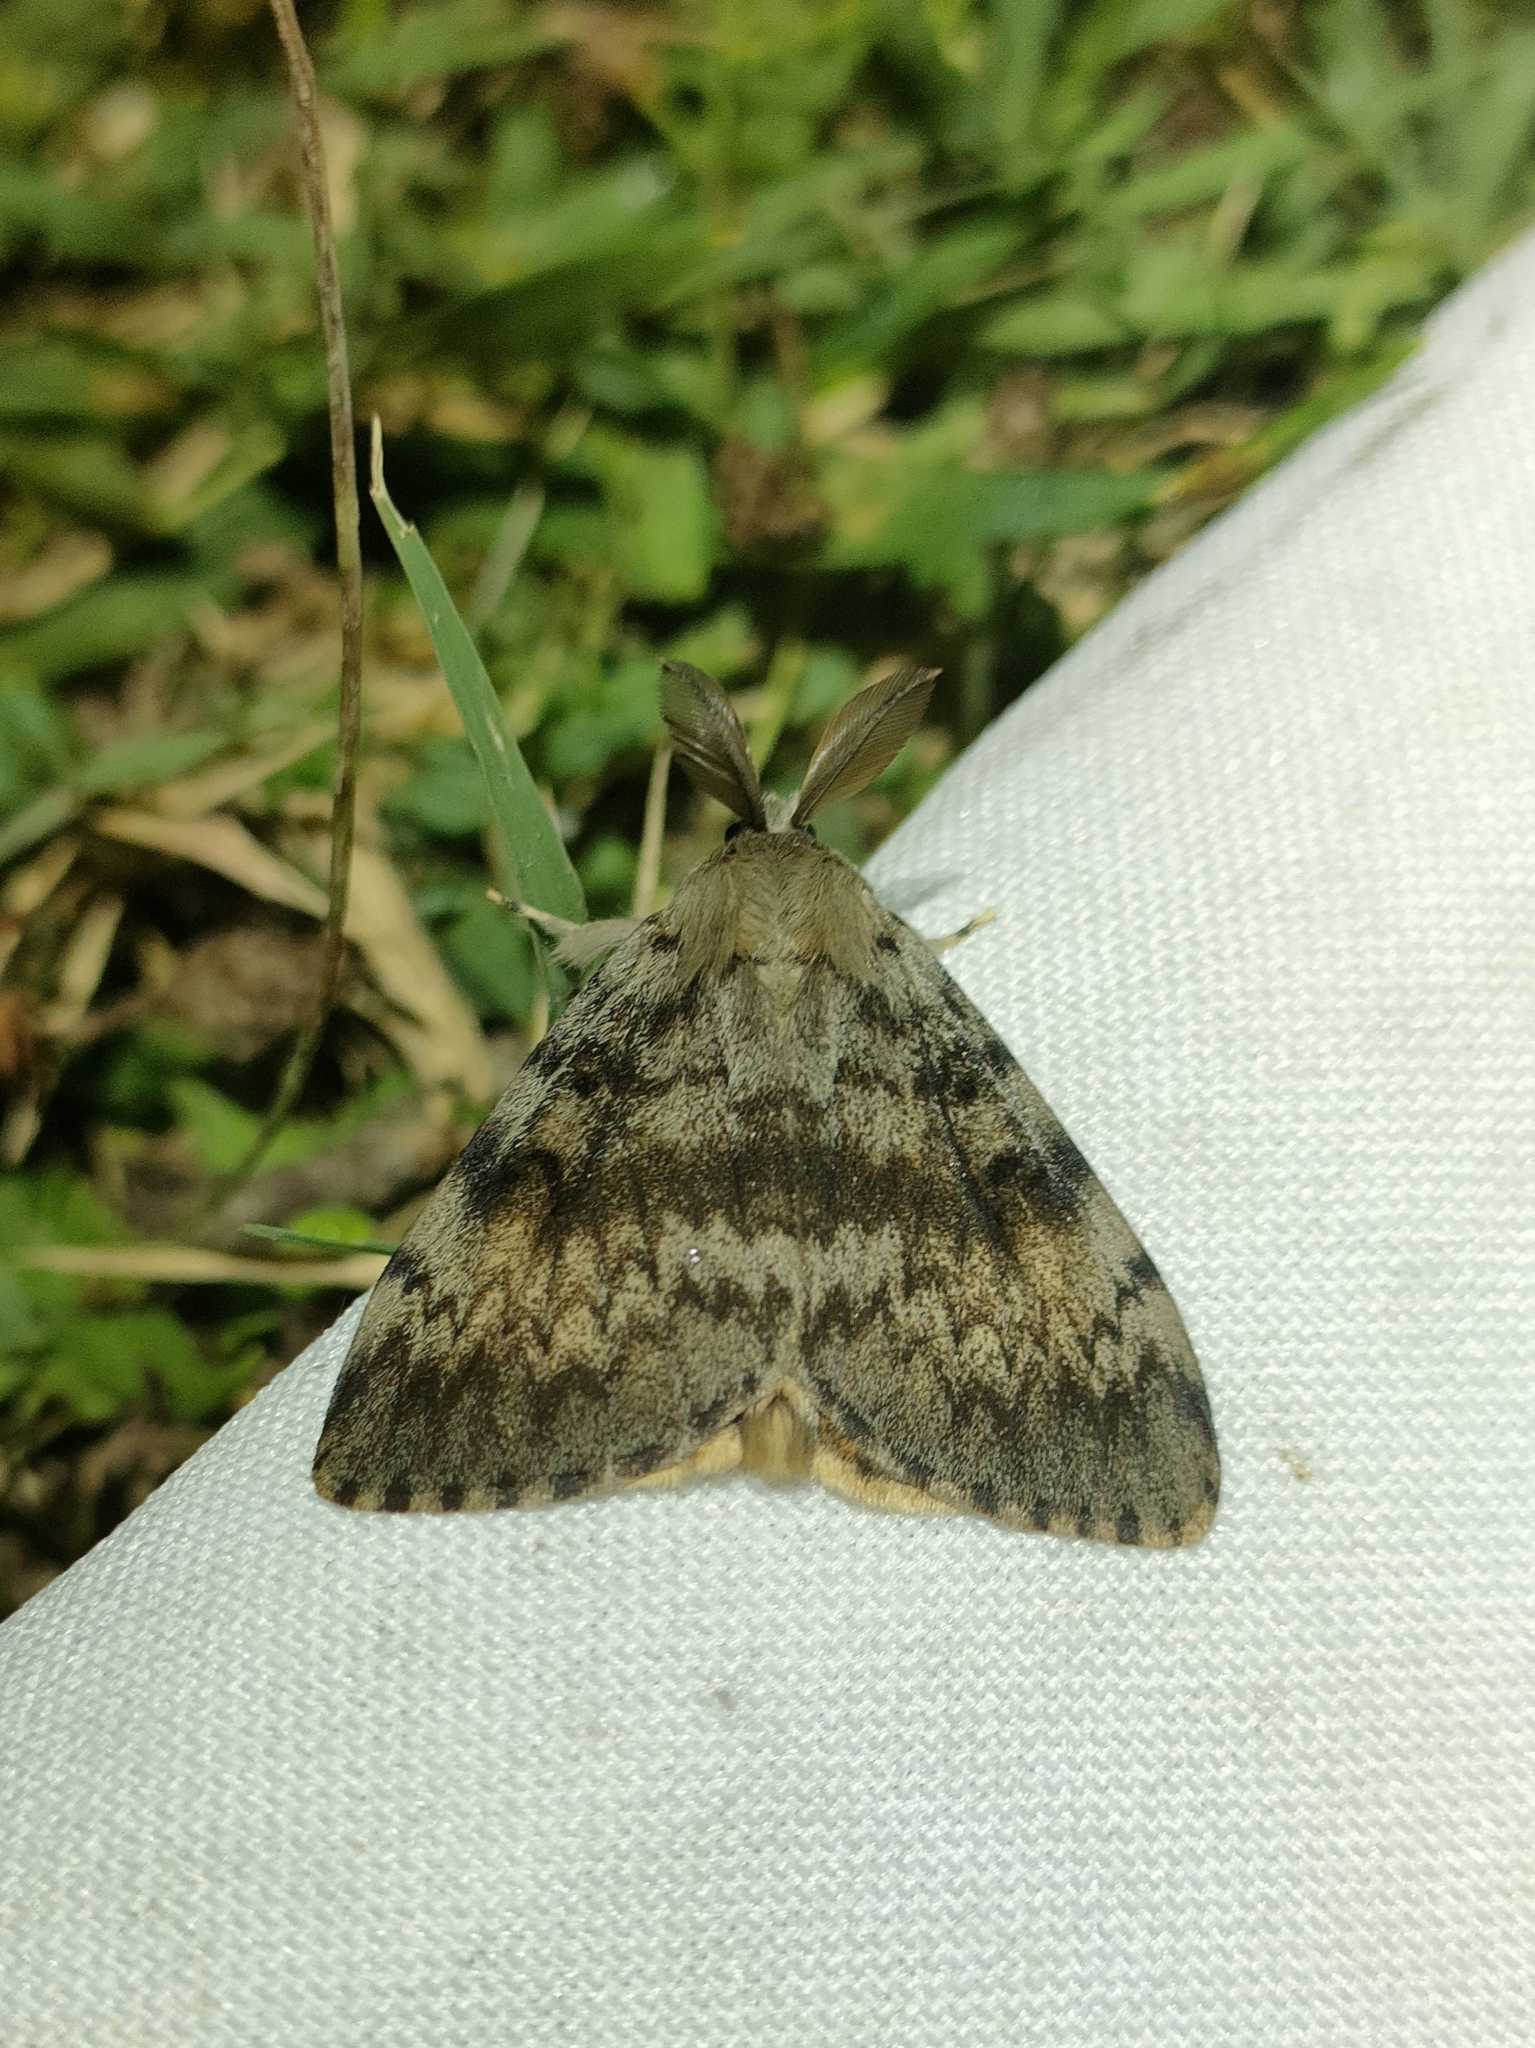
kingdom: Animalia
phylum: Arthropoda
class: Insecta
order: Lepidoptera
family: Erebidae
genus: Lymantria
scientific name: Lymantria dispar
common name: Gypsy moth
